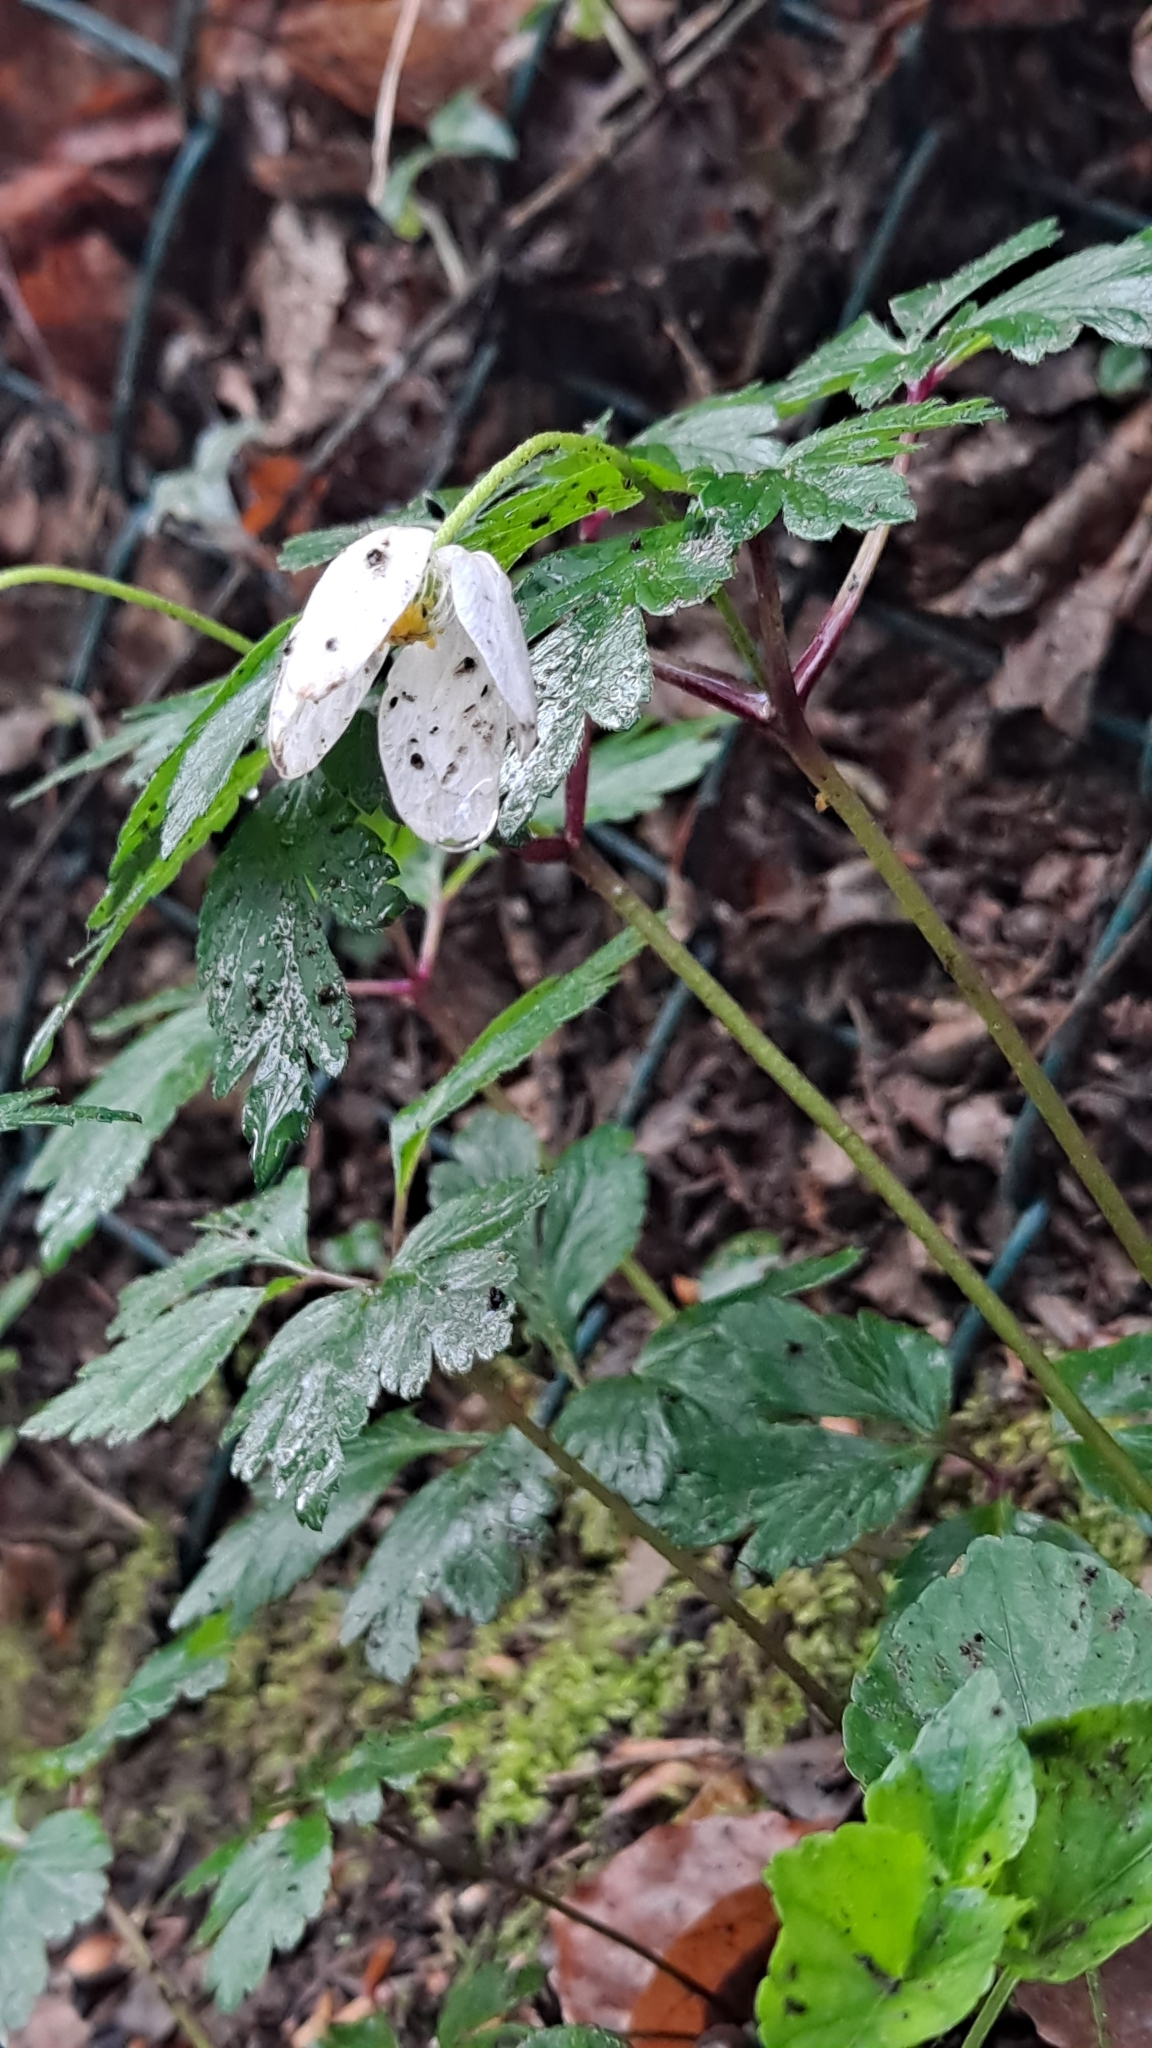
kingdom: Plantae
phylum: Tracheophyta
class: Magnoliopsida
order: Ranunculales
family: Ranunculaceae
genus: Anemone
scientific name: Anemone nemorosa
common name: Wood anemone
